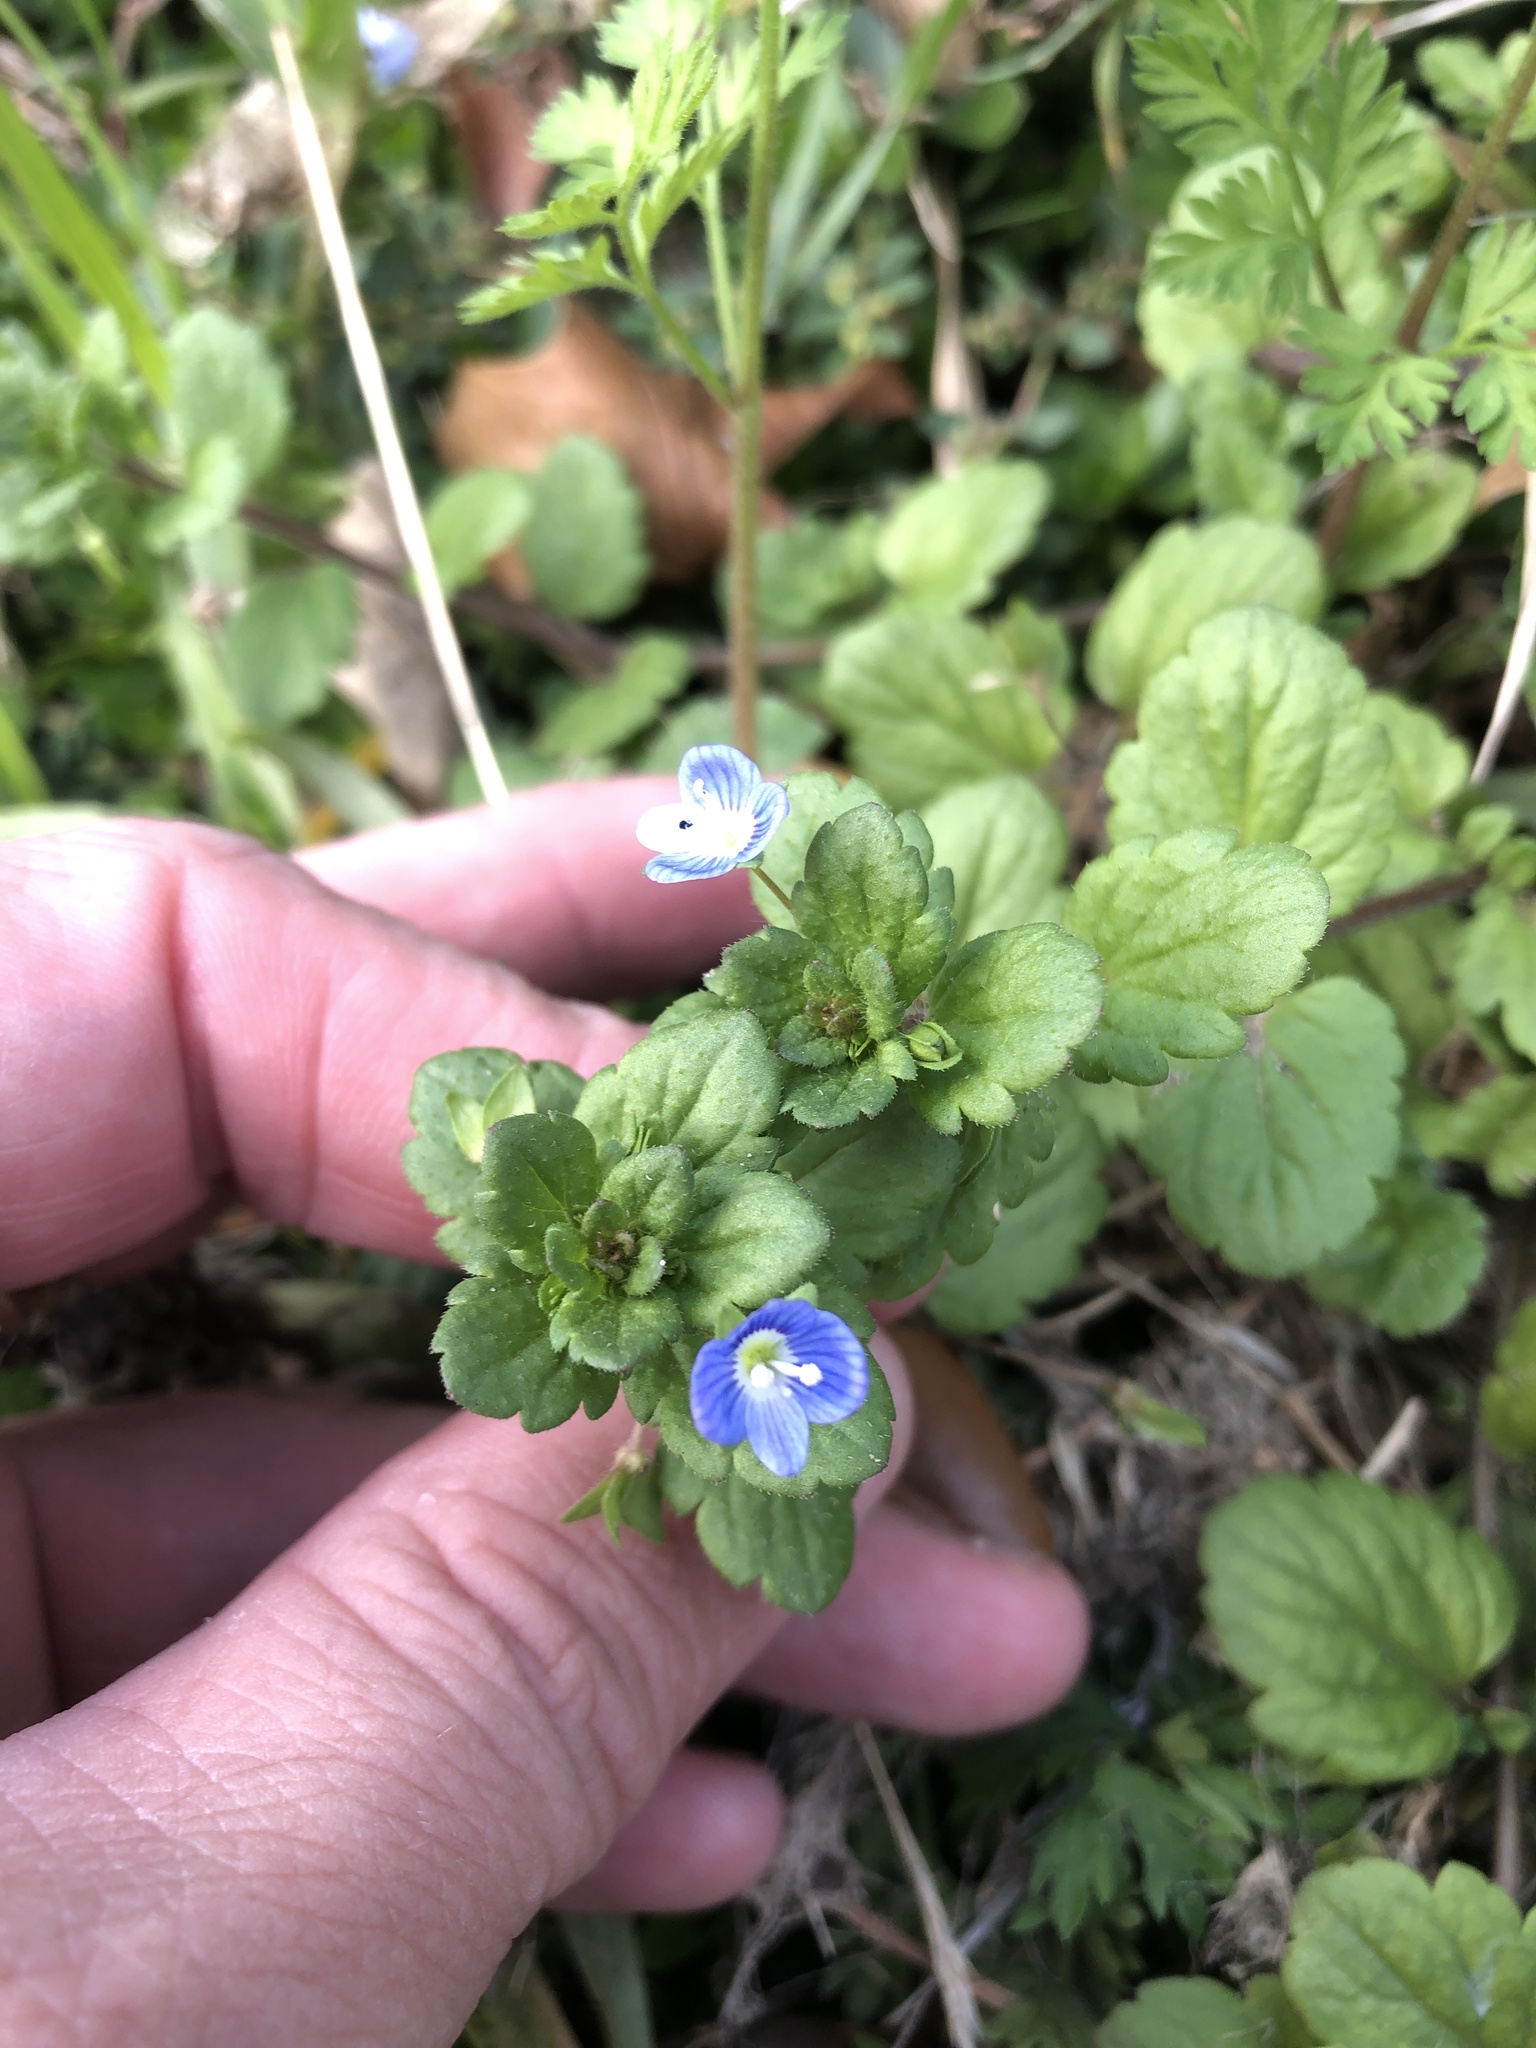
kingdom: Plantae
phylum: Tracheophyta
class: Magnoliopsida
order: Lamiales
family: Plantaginaceae
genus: Veronica
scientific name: Veronica persica
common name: Common field-speedwell
